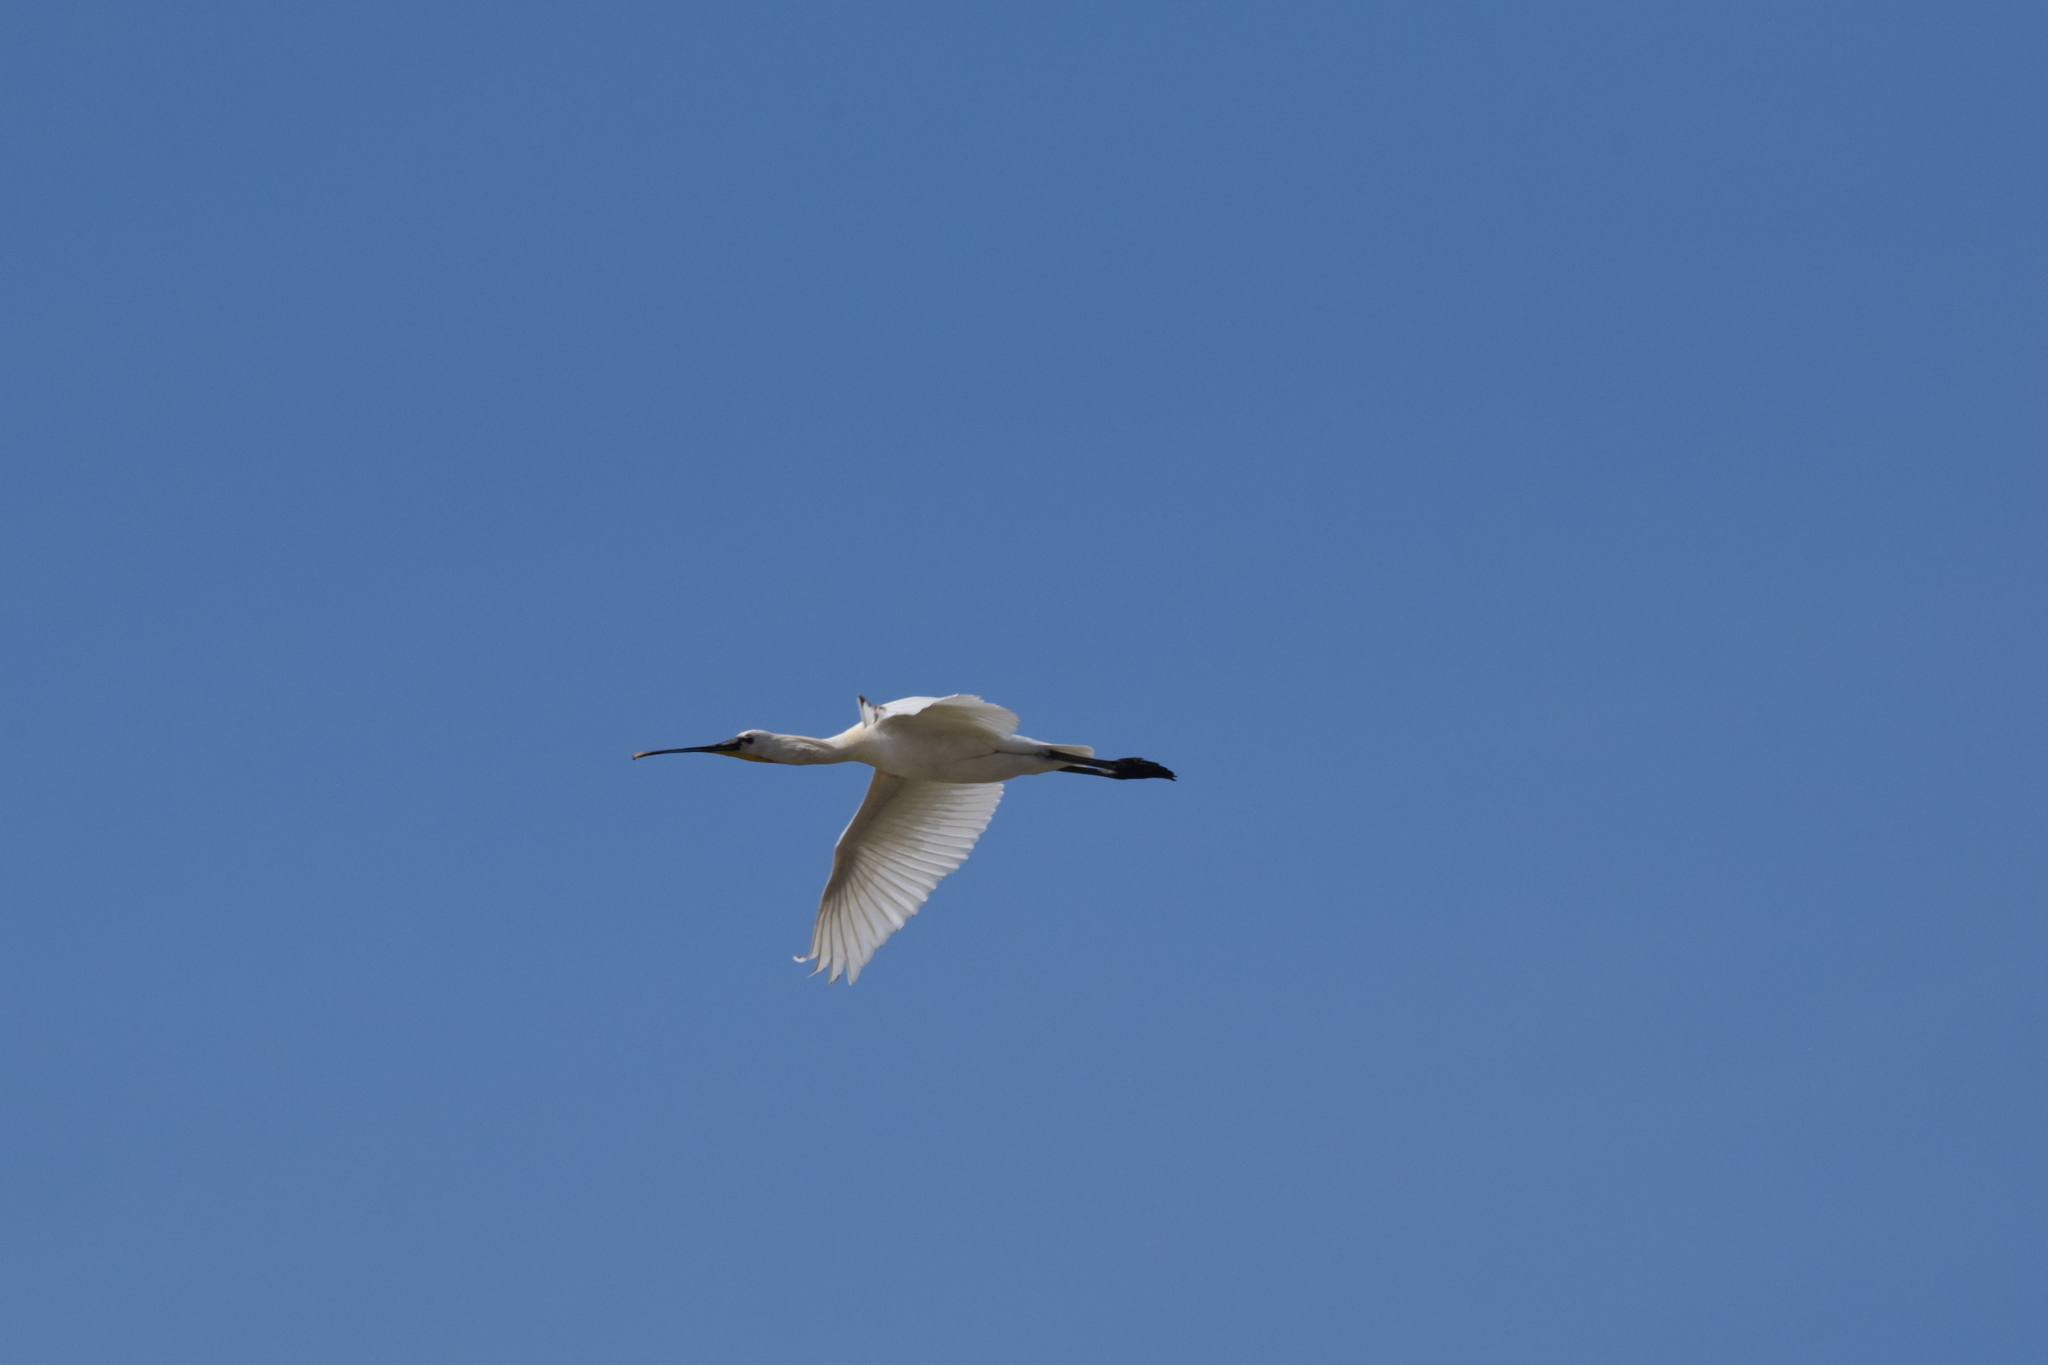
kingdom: Animalia
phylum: Chordata
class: Aves
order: Pelecaniformes
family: Threskiornithidae
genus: Platalea
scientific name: Platalea leucorodia
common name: Eurasian spoonbill
